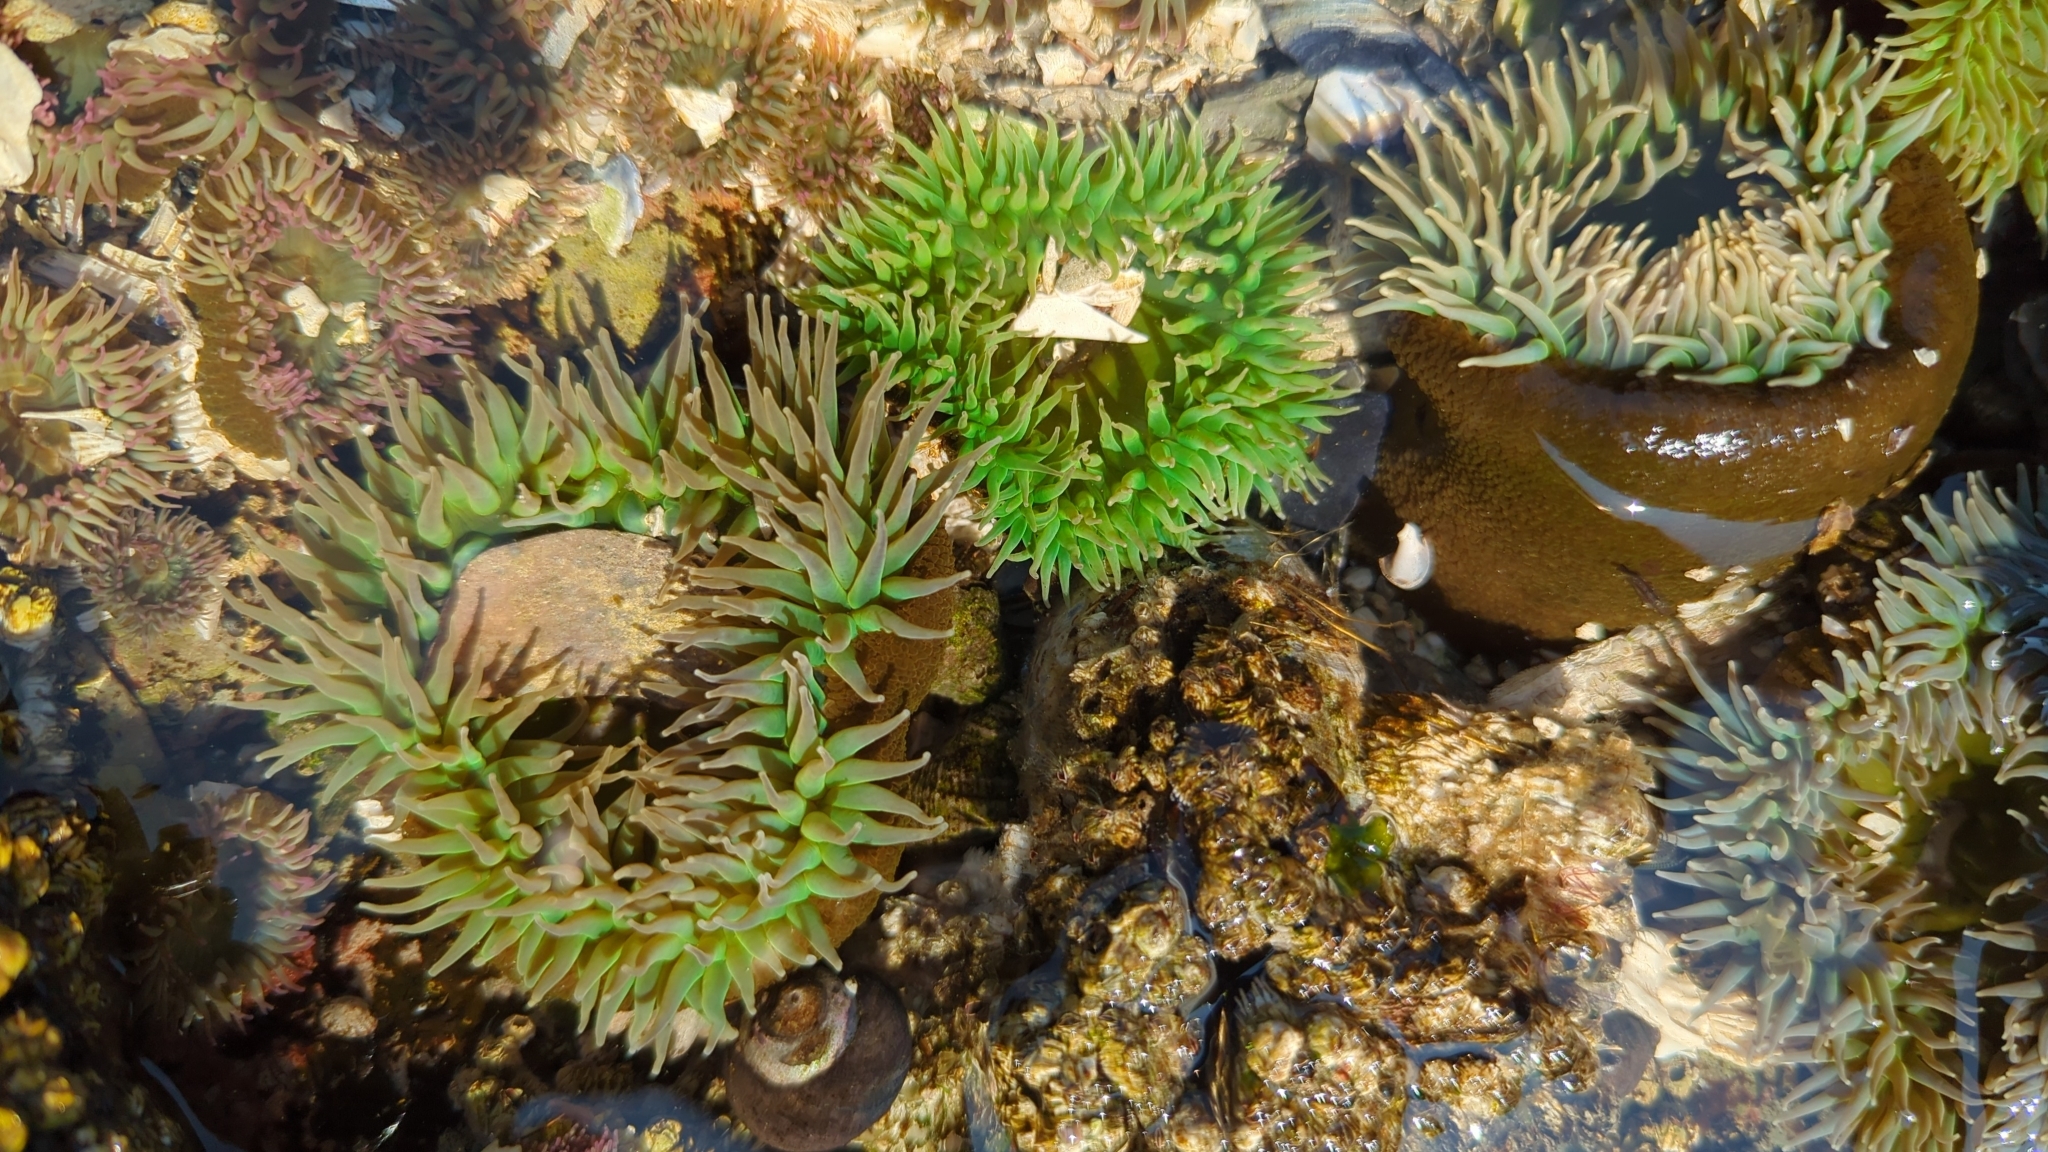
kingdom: Animalia
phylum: Cnidaria
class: Anthozoa
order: Actiniaria
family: Actiniidae
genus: Anthopleura
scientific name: Anthopleura xanthogrammica
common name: Giant green anemone
